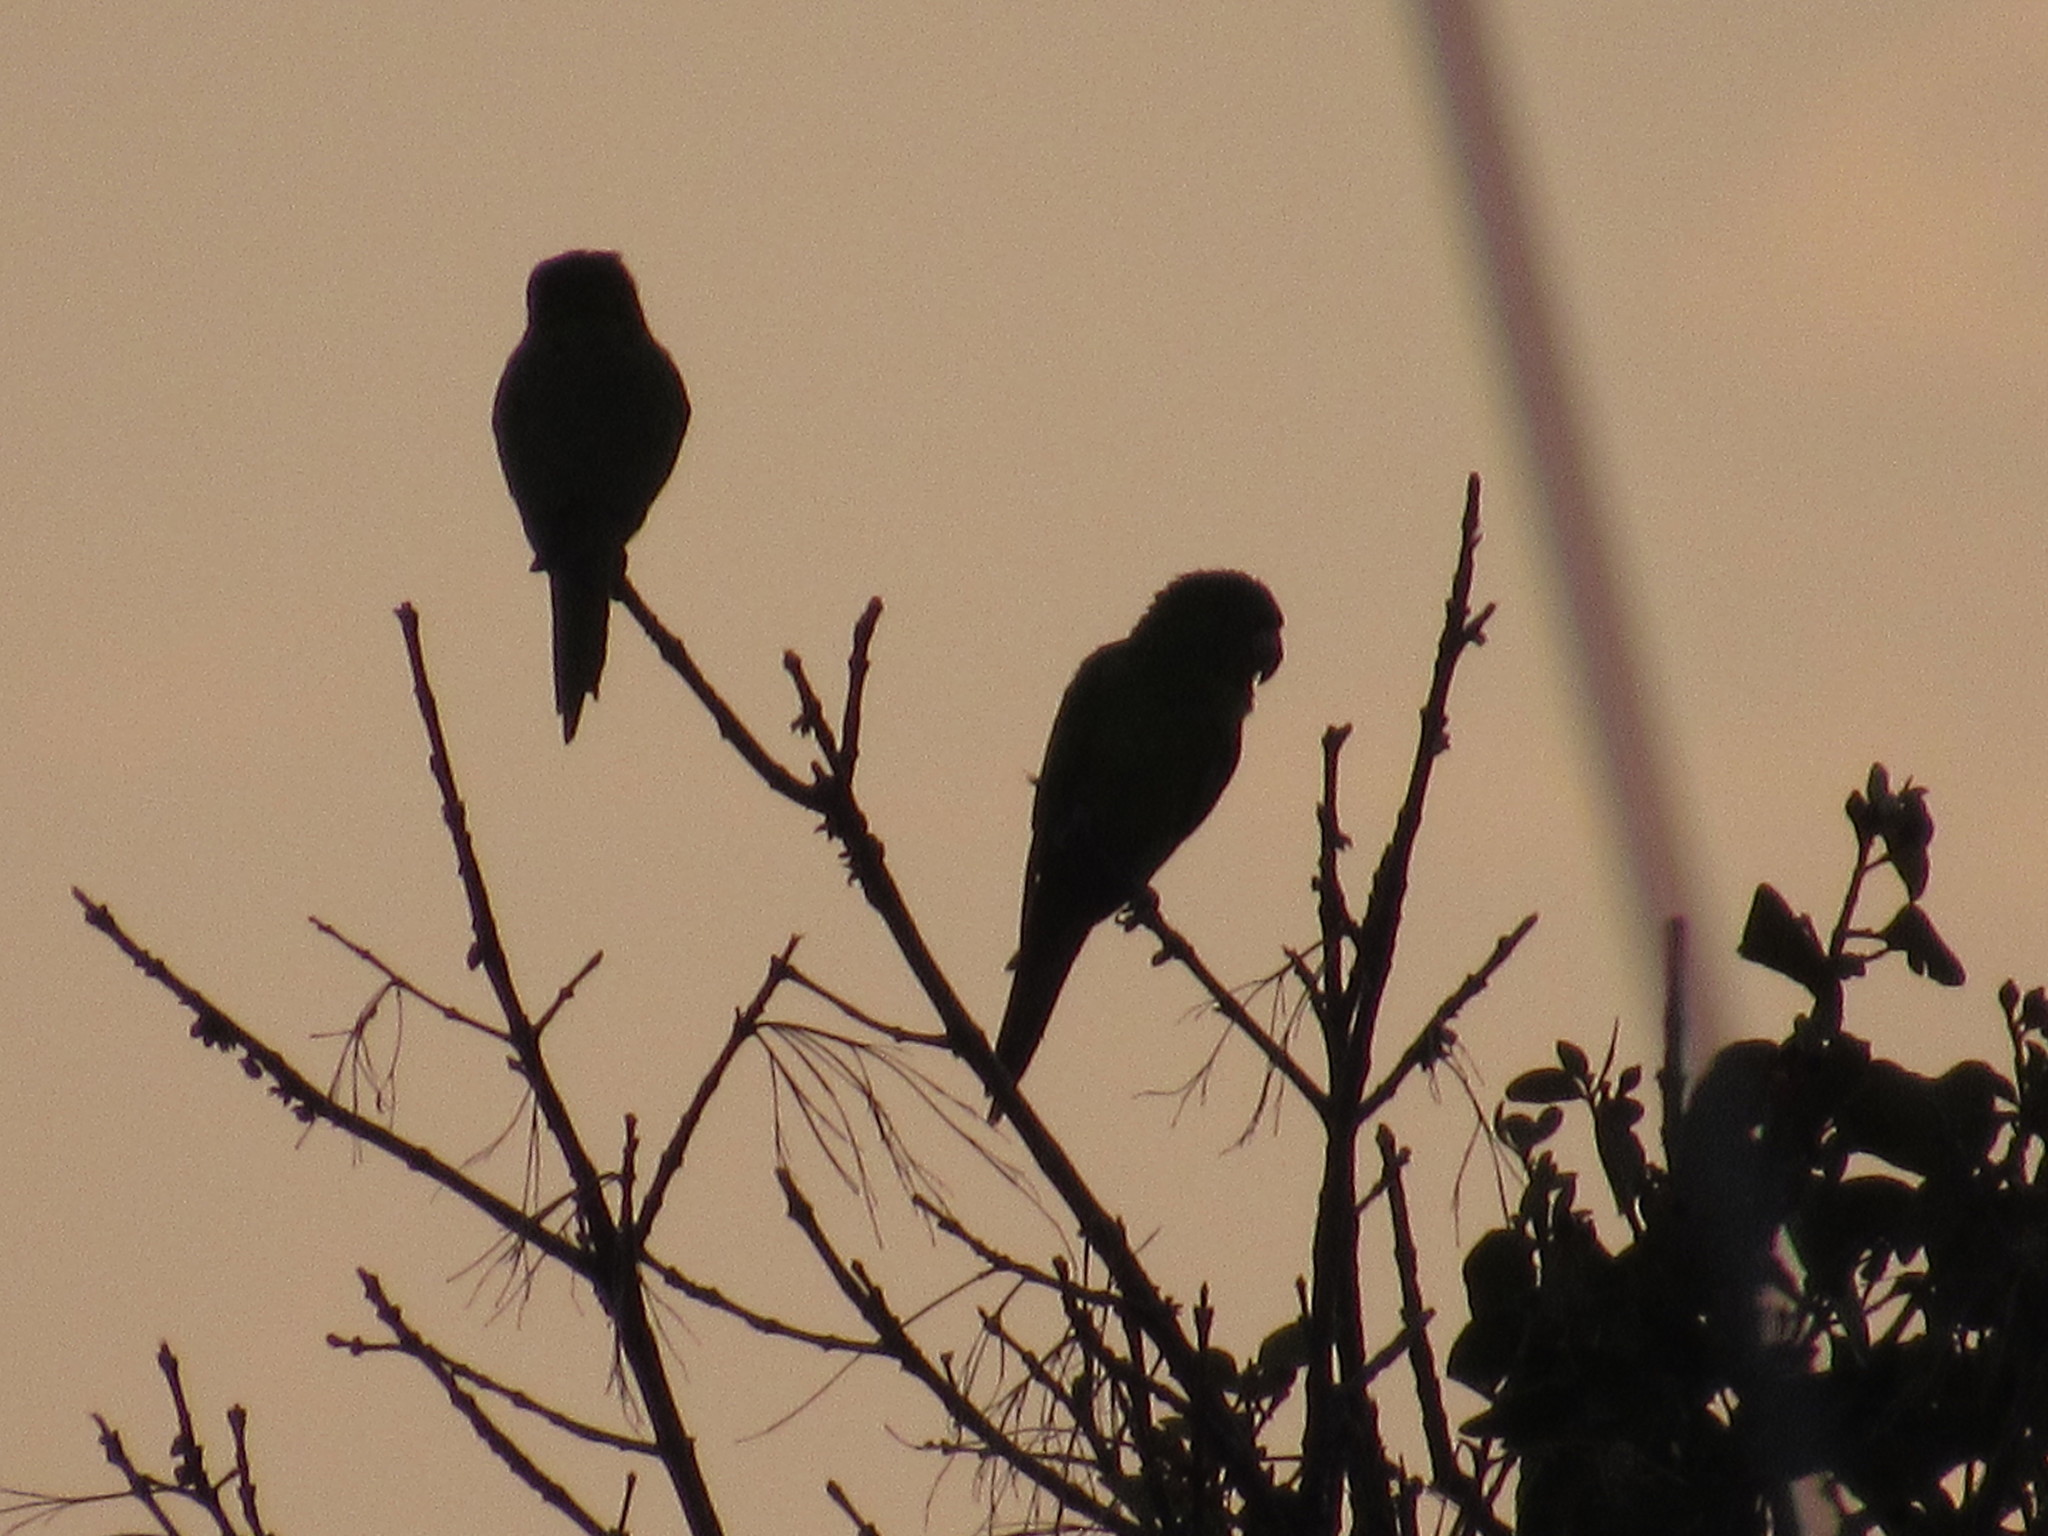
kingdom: Animalia
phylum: Chordata
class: Aves
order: Psittaciformes
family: Psittacidae
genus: Psittacara
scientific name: Psittacara
